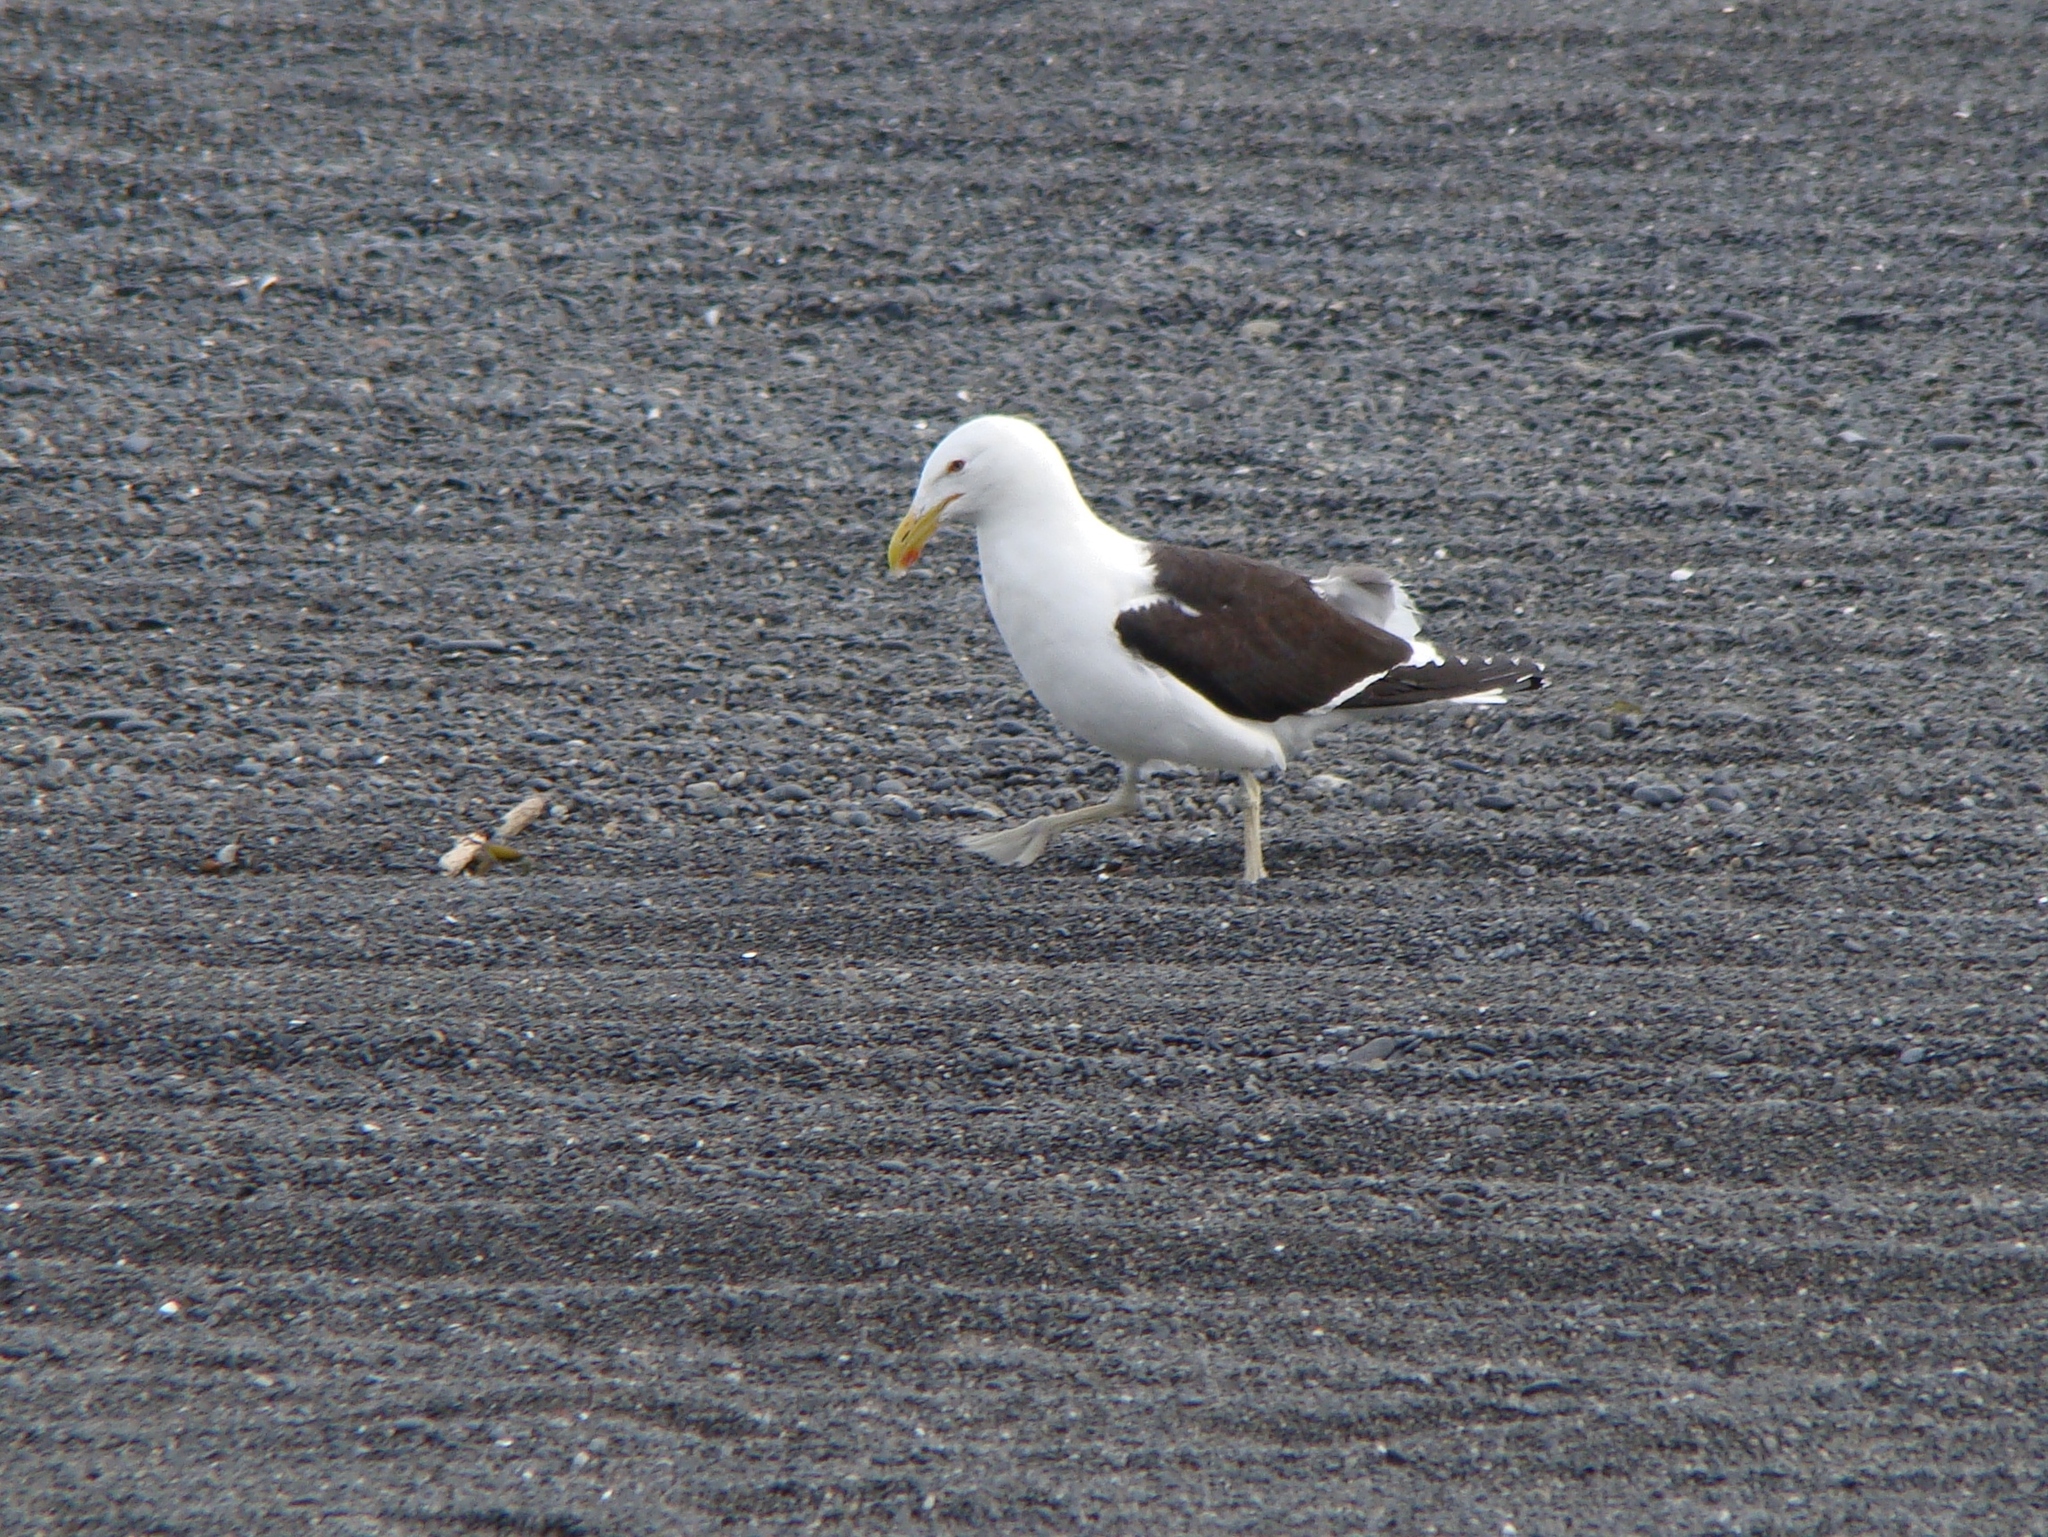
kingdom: Animalia
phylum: Chordata
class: Aves
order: Charadriiformes
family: Laridae
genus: Larus
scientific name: Larus dominicanus
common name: Kelp gull
